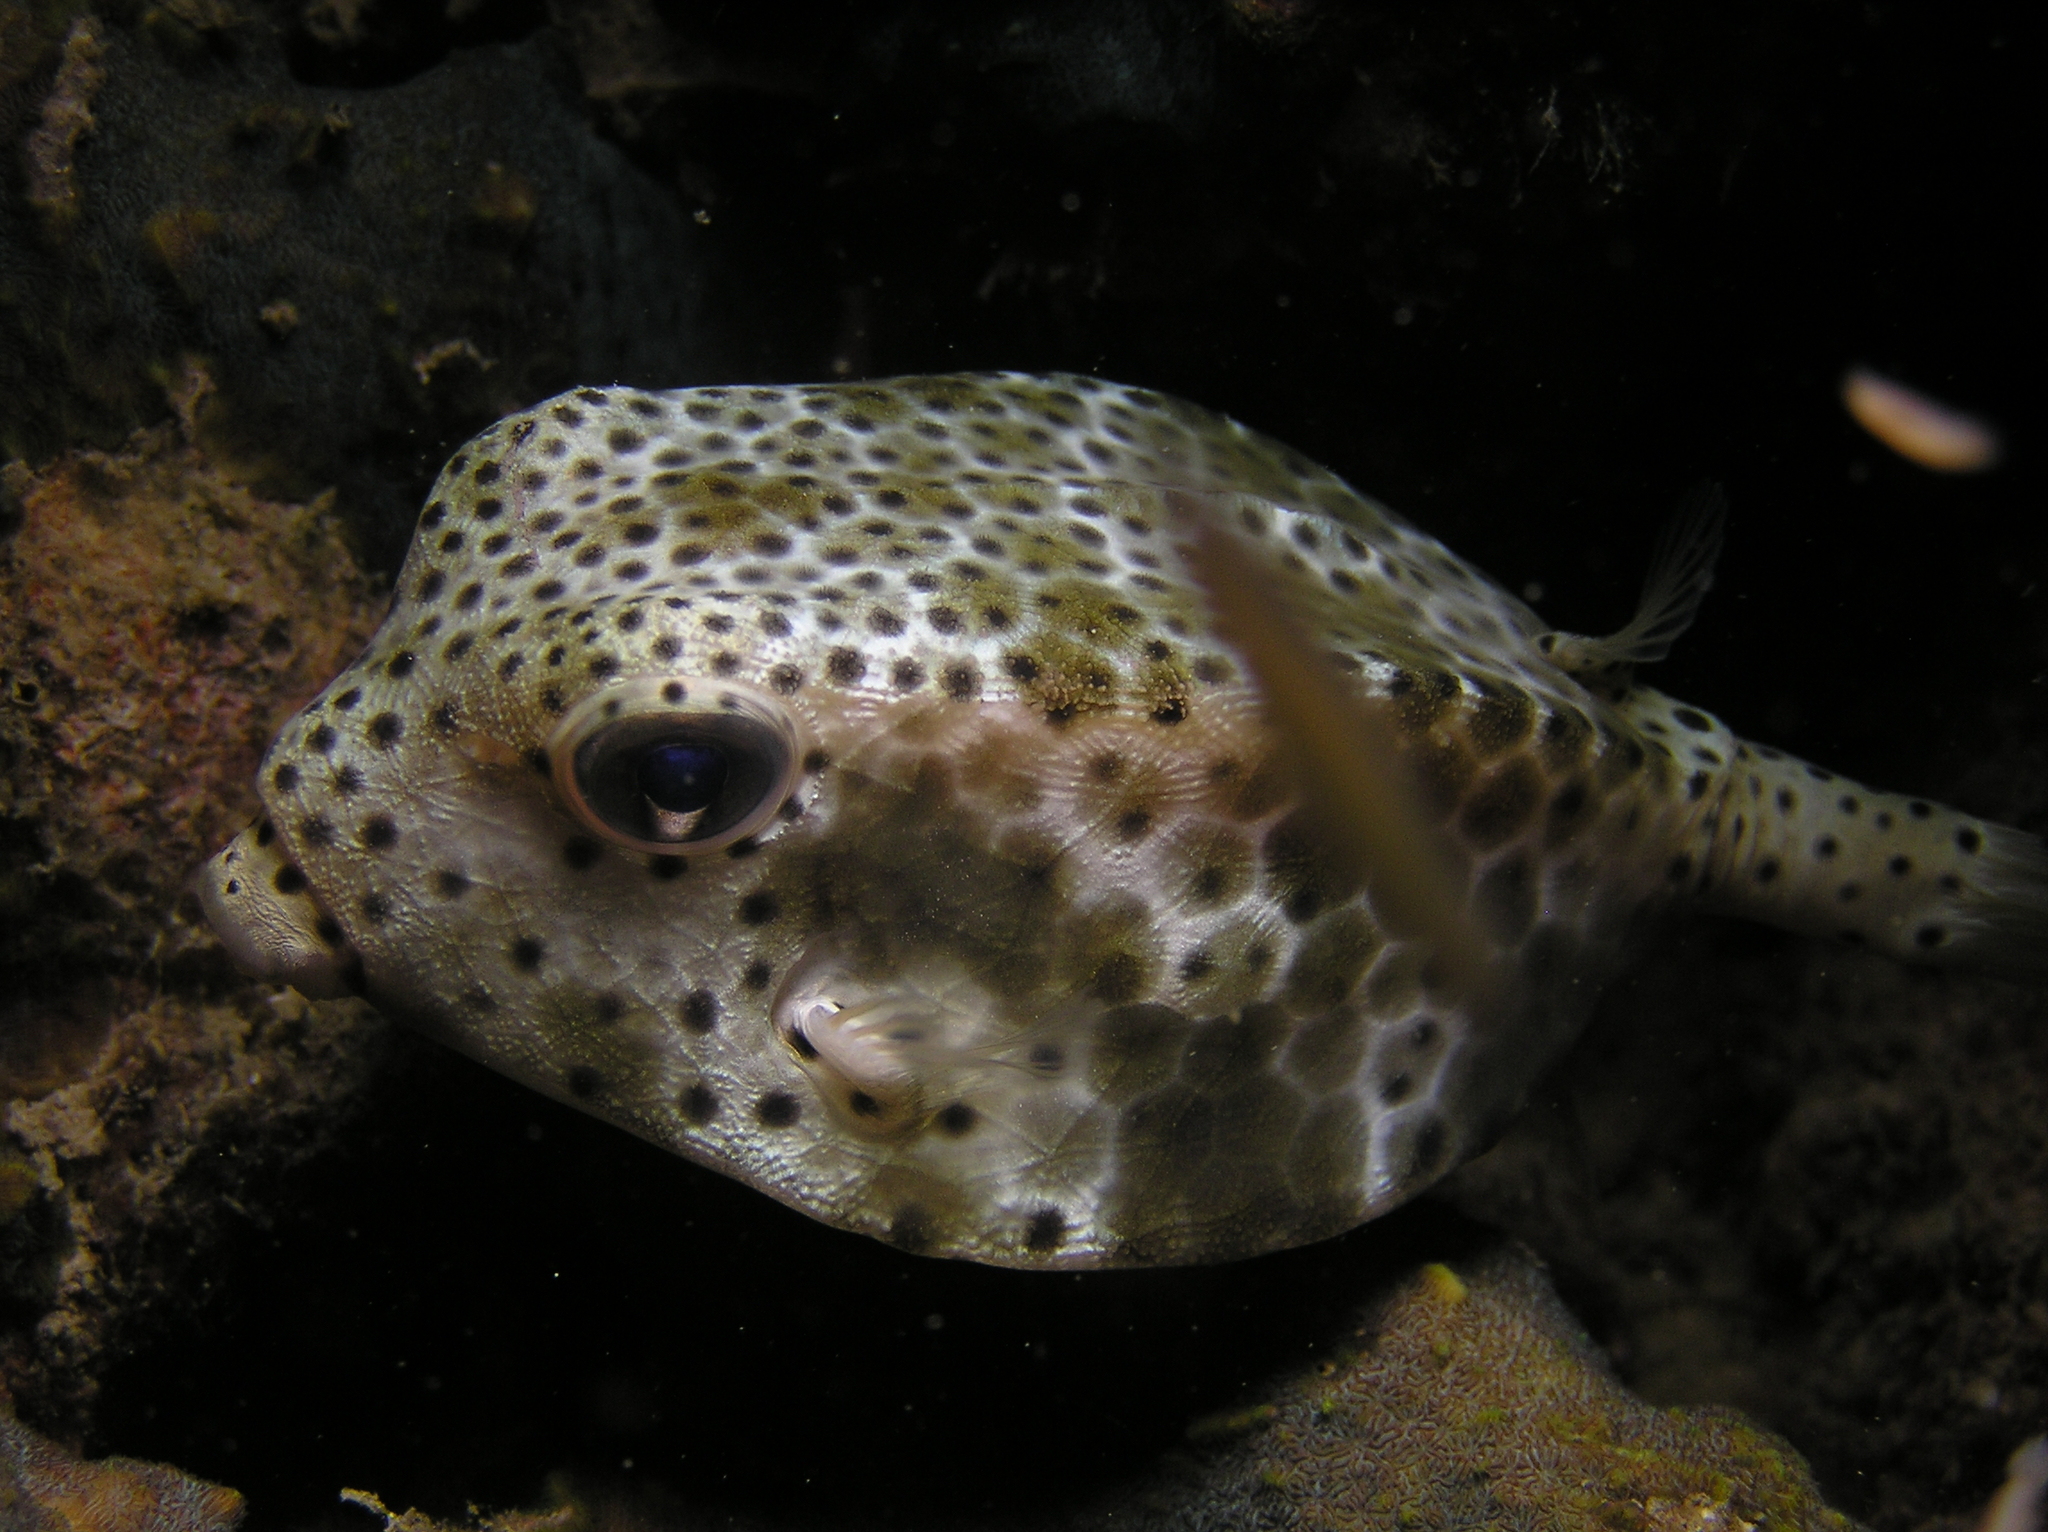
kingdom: Animalia
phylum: Chordata
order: Tetraodontiformes
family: Ostraciidae
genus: Ostracion
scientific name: Ostracion rhinorhynchos
